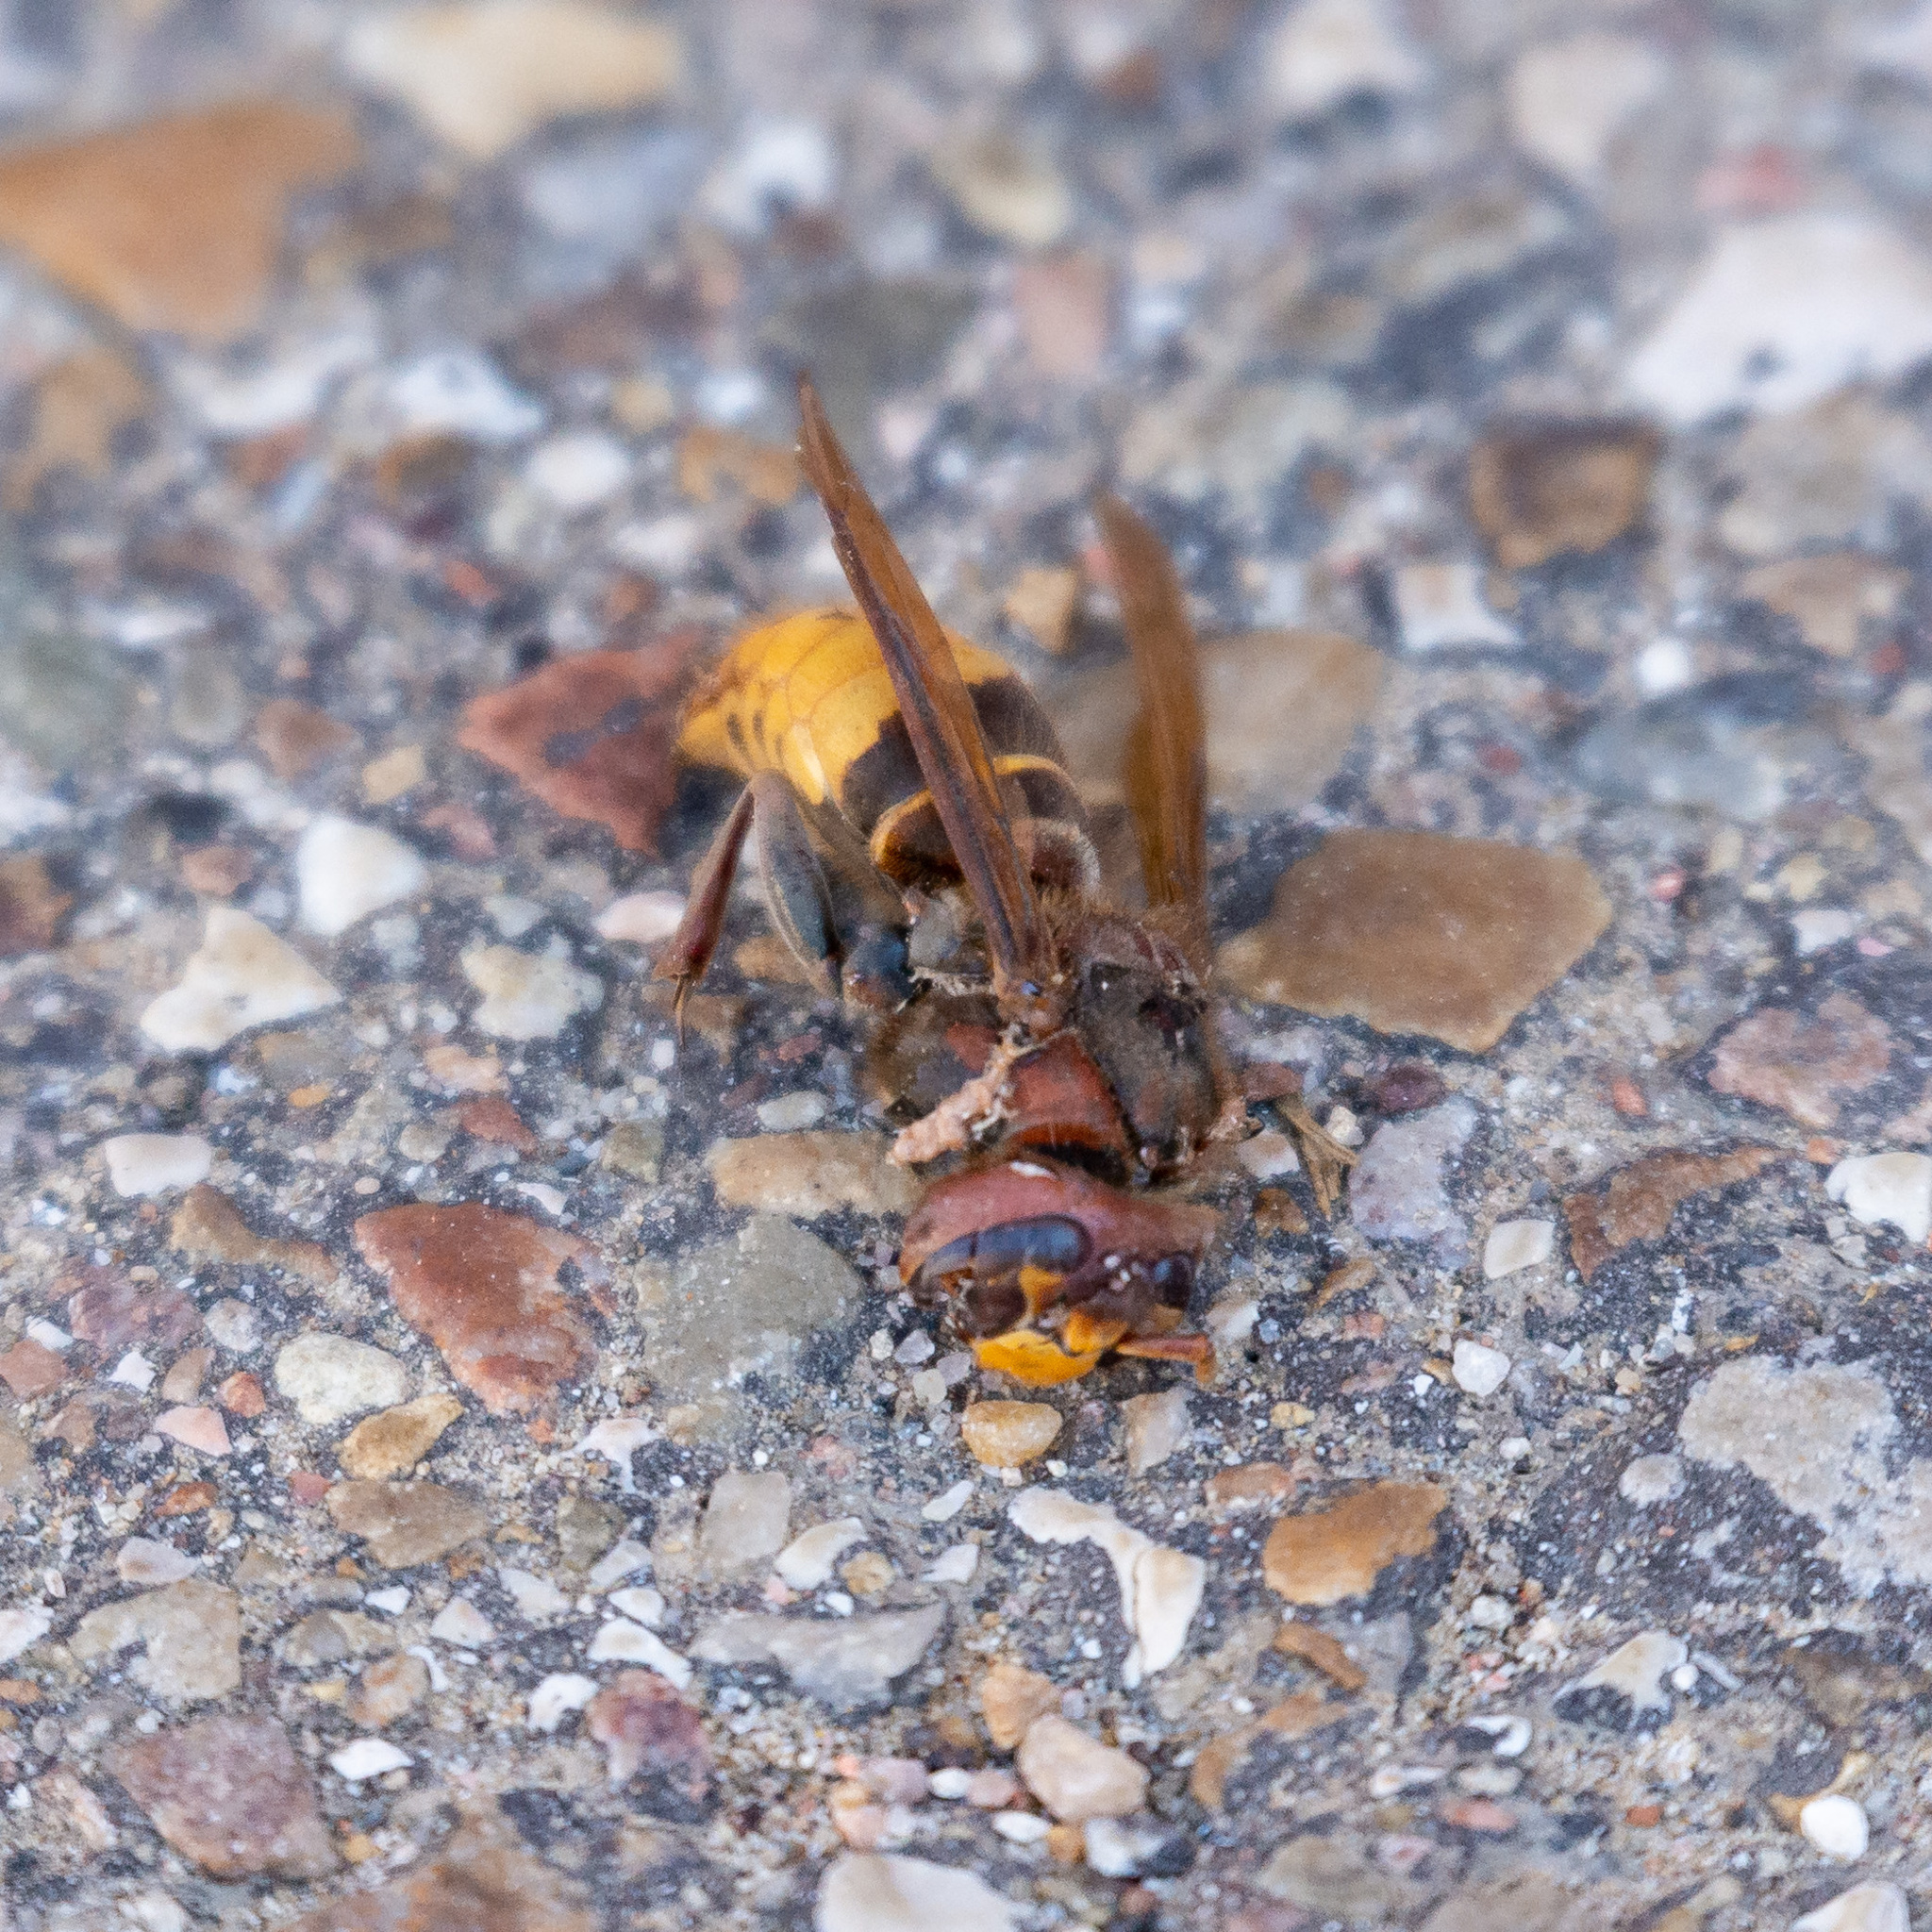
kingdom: Animalia
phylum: Arthropoda
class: Insecta
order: Hymenoptera
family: Vespidae
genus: Vespa
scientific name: Vespa crabro
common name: Hornet
